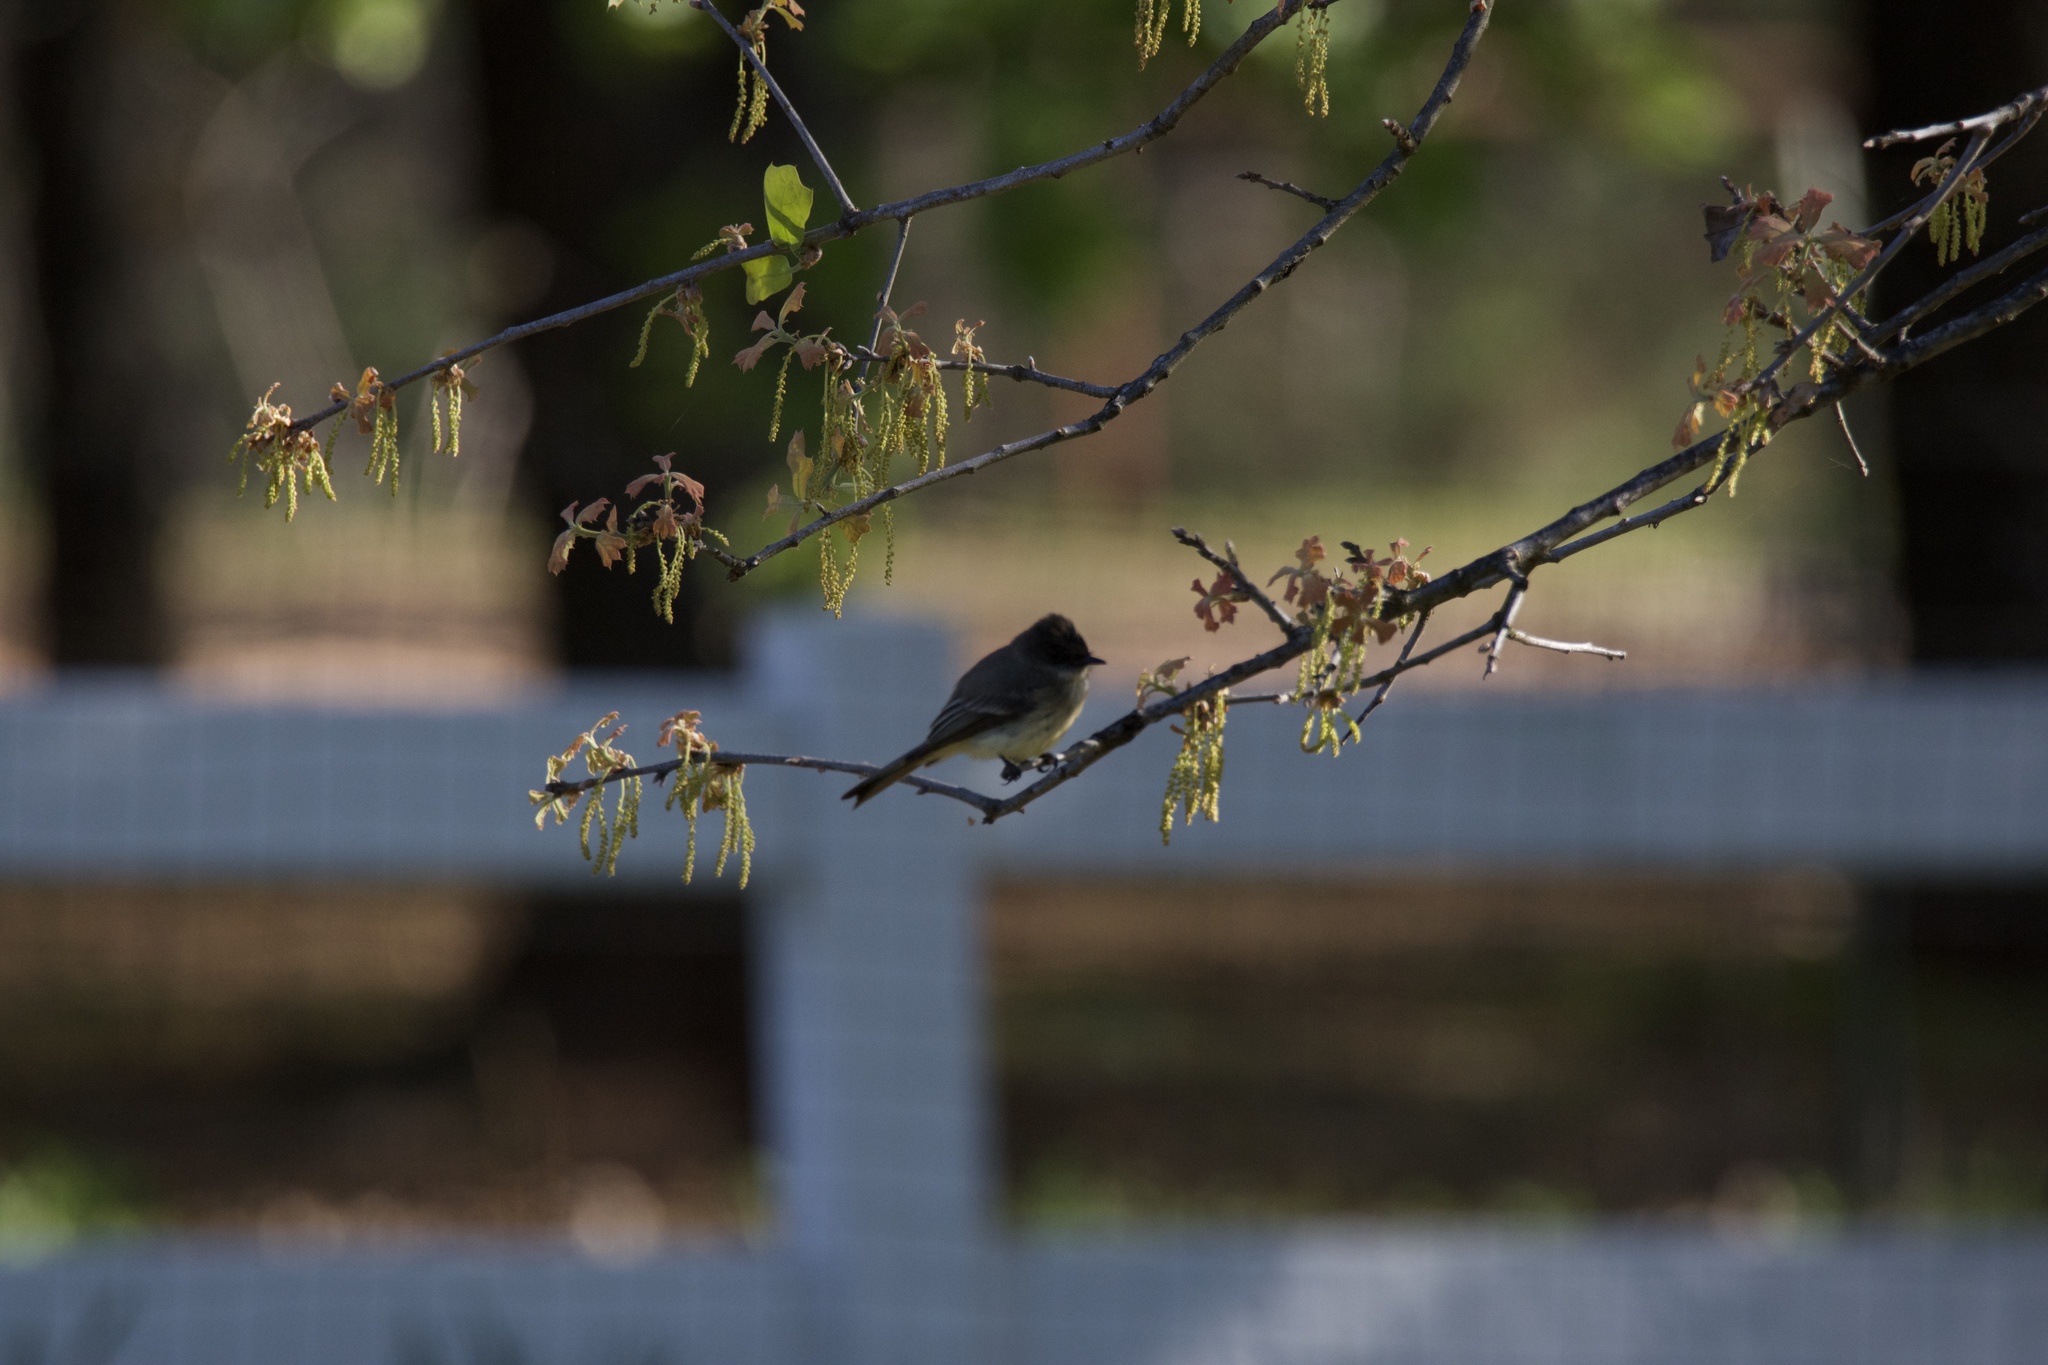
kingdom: Animalia
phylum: Chordata
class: Aves
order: Passeriformes
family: Tyrannidae
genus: Sayornis
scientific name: Sayornis phoebe
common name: Eastern phoebe
